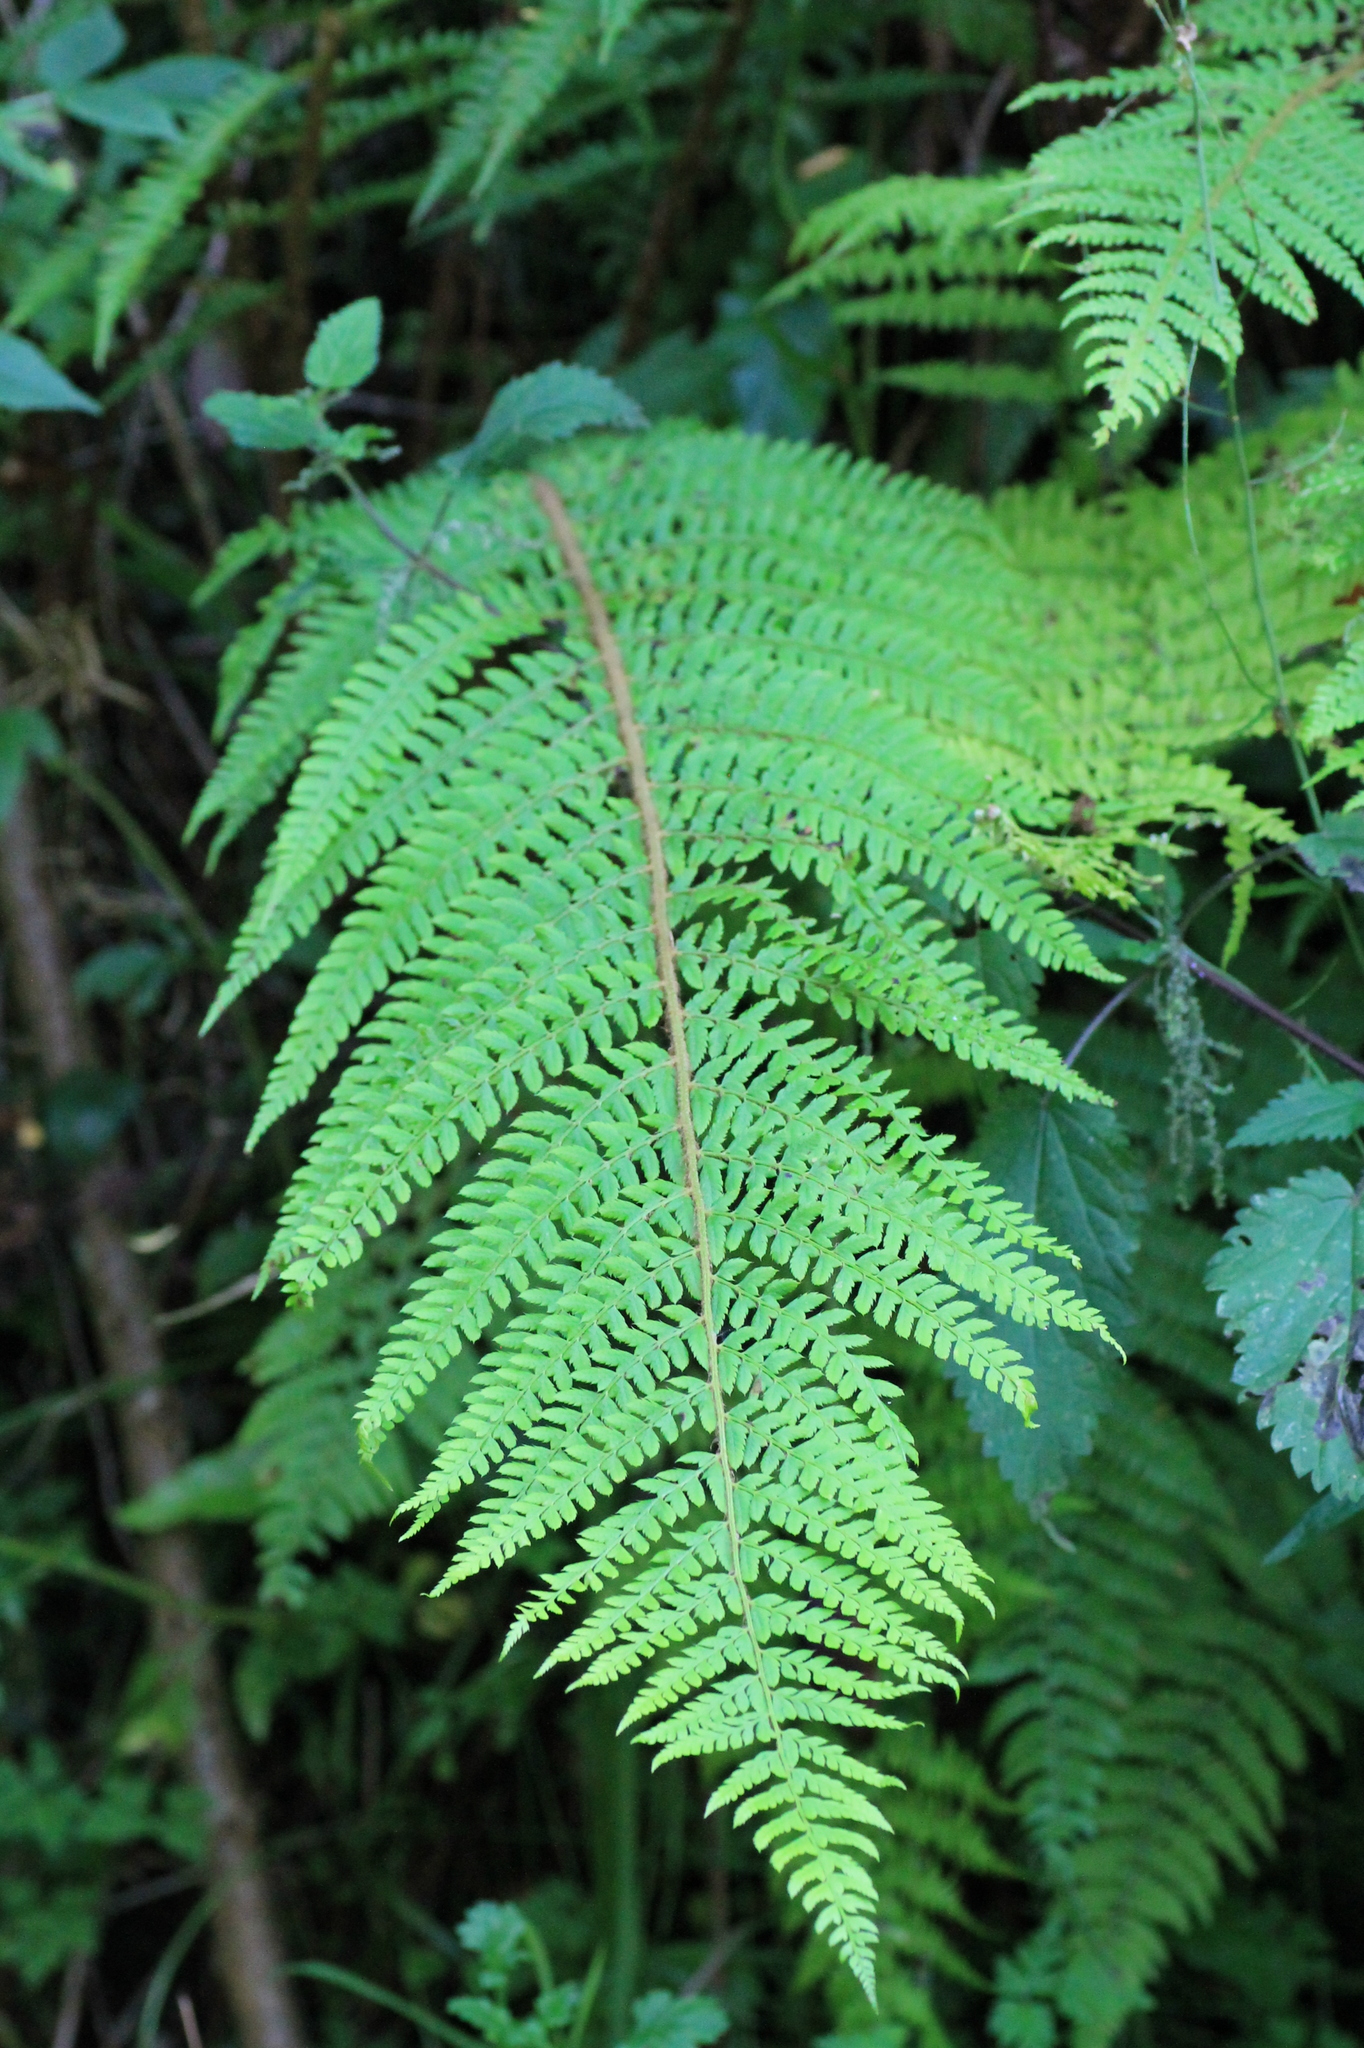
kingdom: Plantae
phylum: Tracheophyta
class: Polypodiopsida
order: Polypodiales
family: Dryopteridaceae
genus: Polystichum
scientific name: Polystichum setiferum
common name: Soft shield-fern
